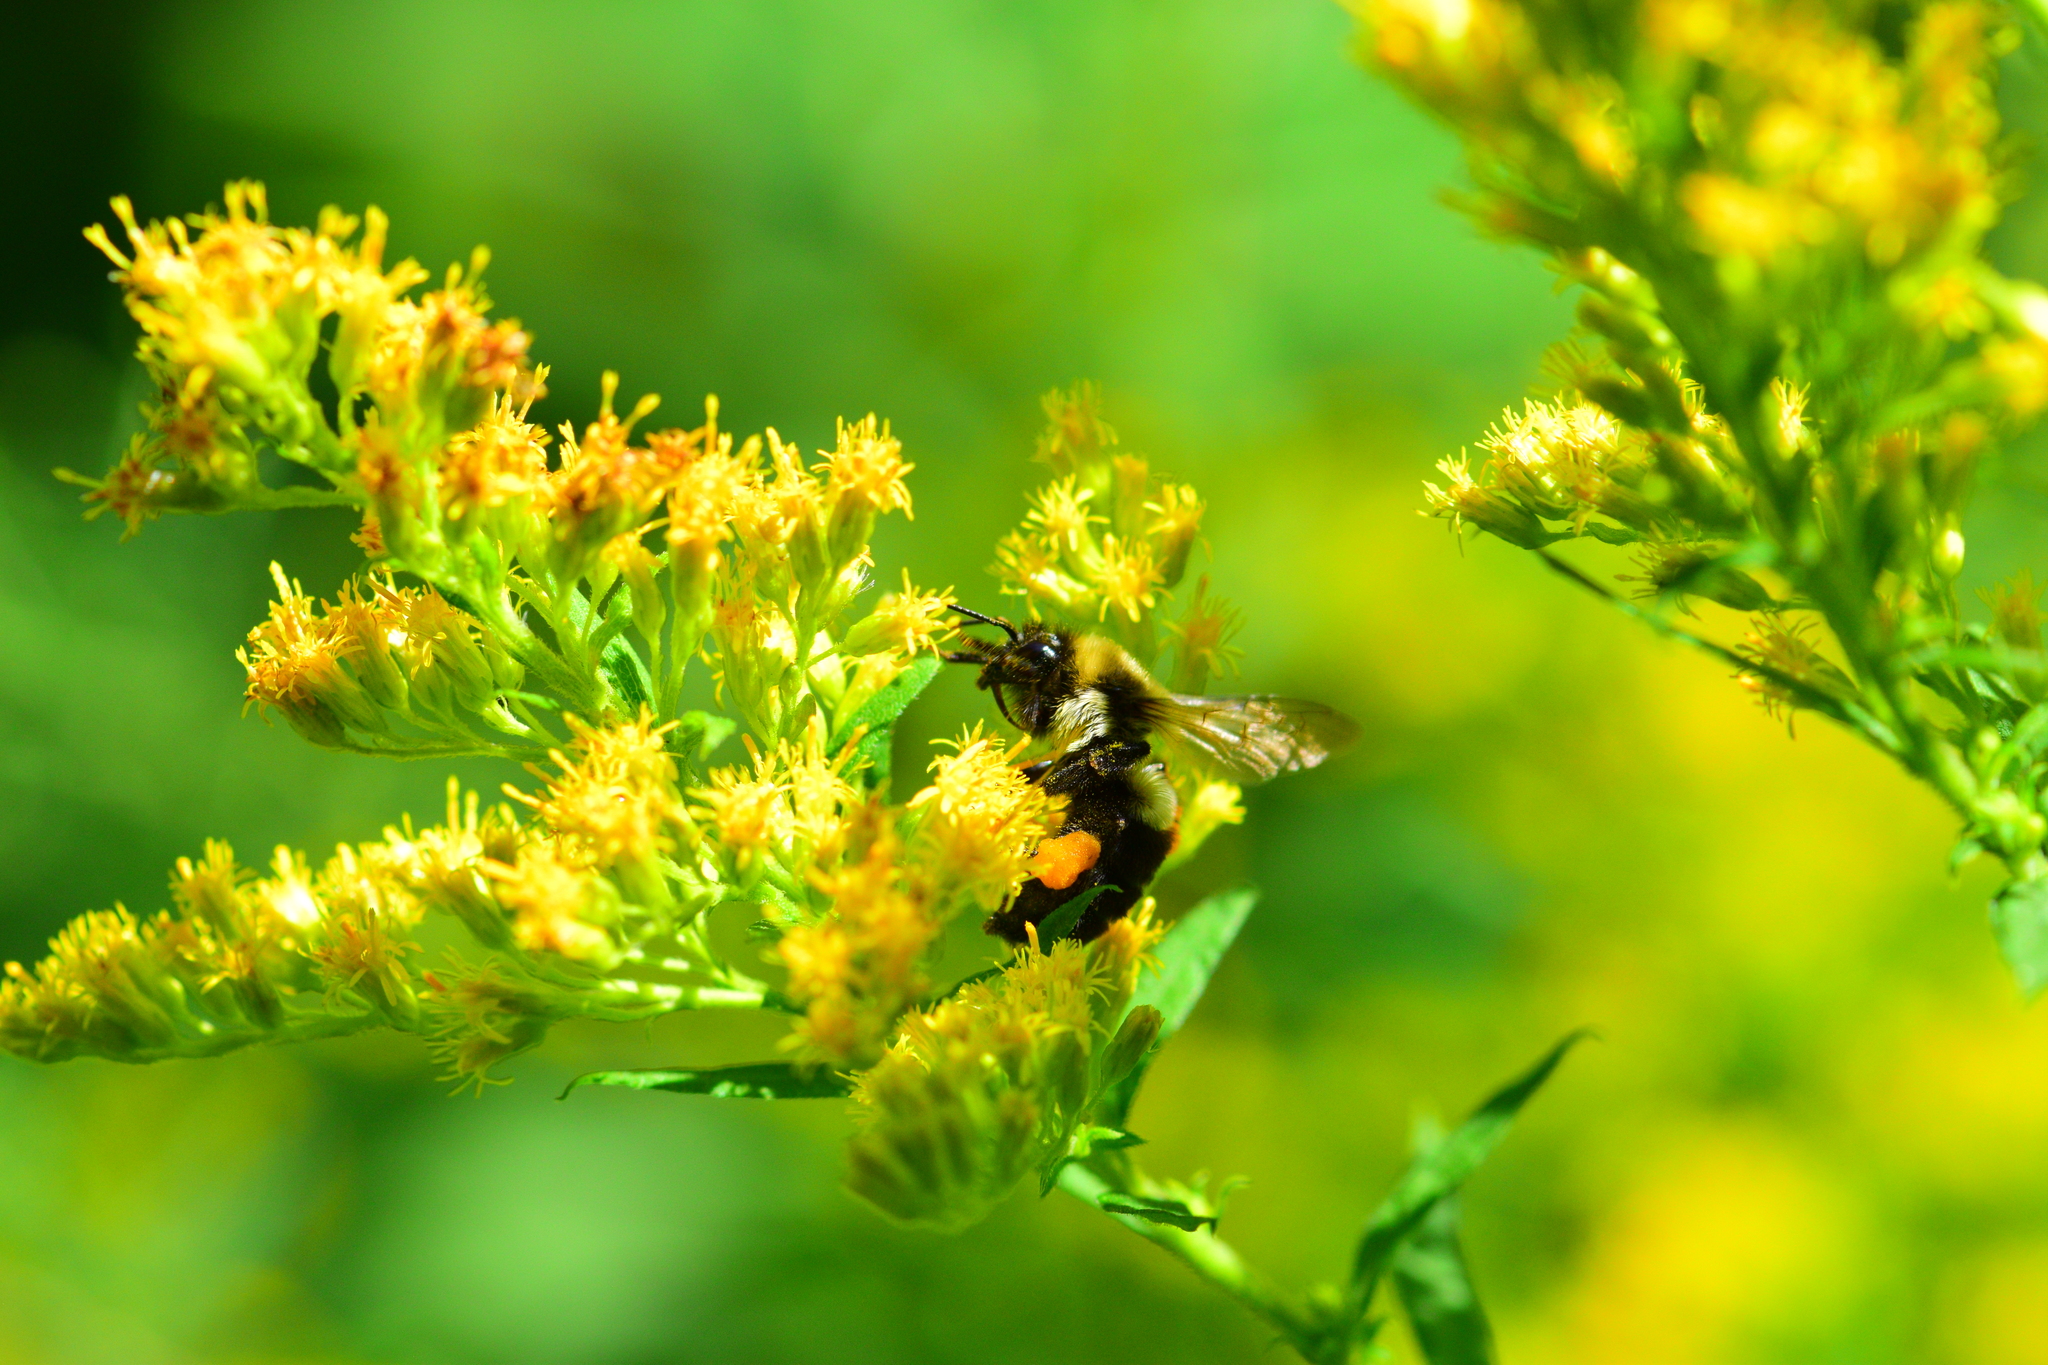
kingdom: Animalia
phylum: Arthropoda
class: Insecta
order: Hymenoptera
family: Apidae
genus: Bombus
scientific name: Bombus impatiens
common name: Common eastern bumble bee
